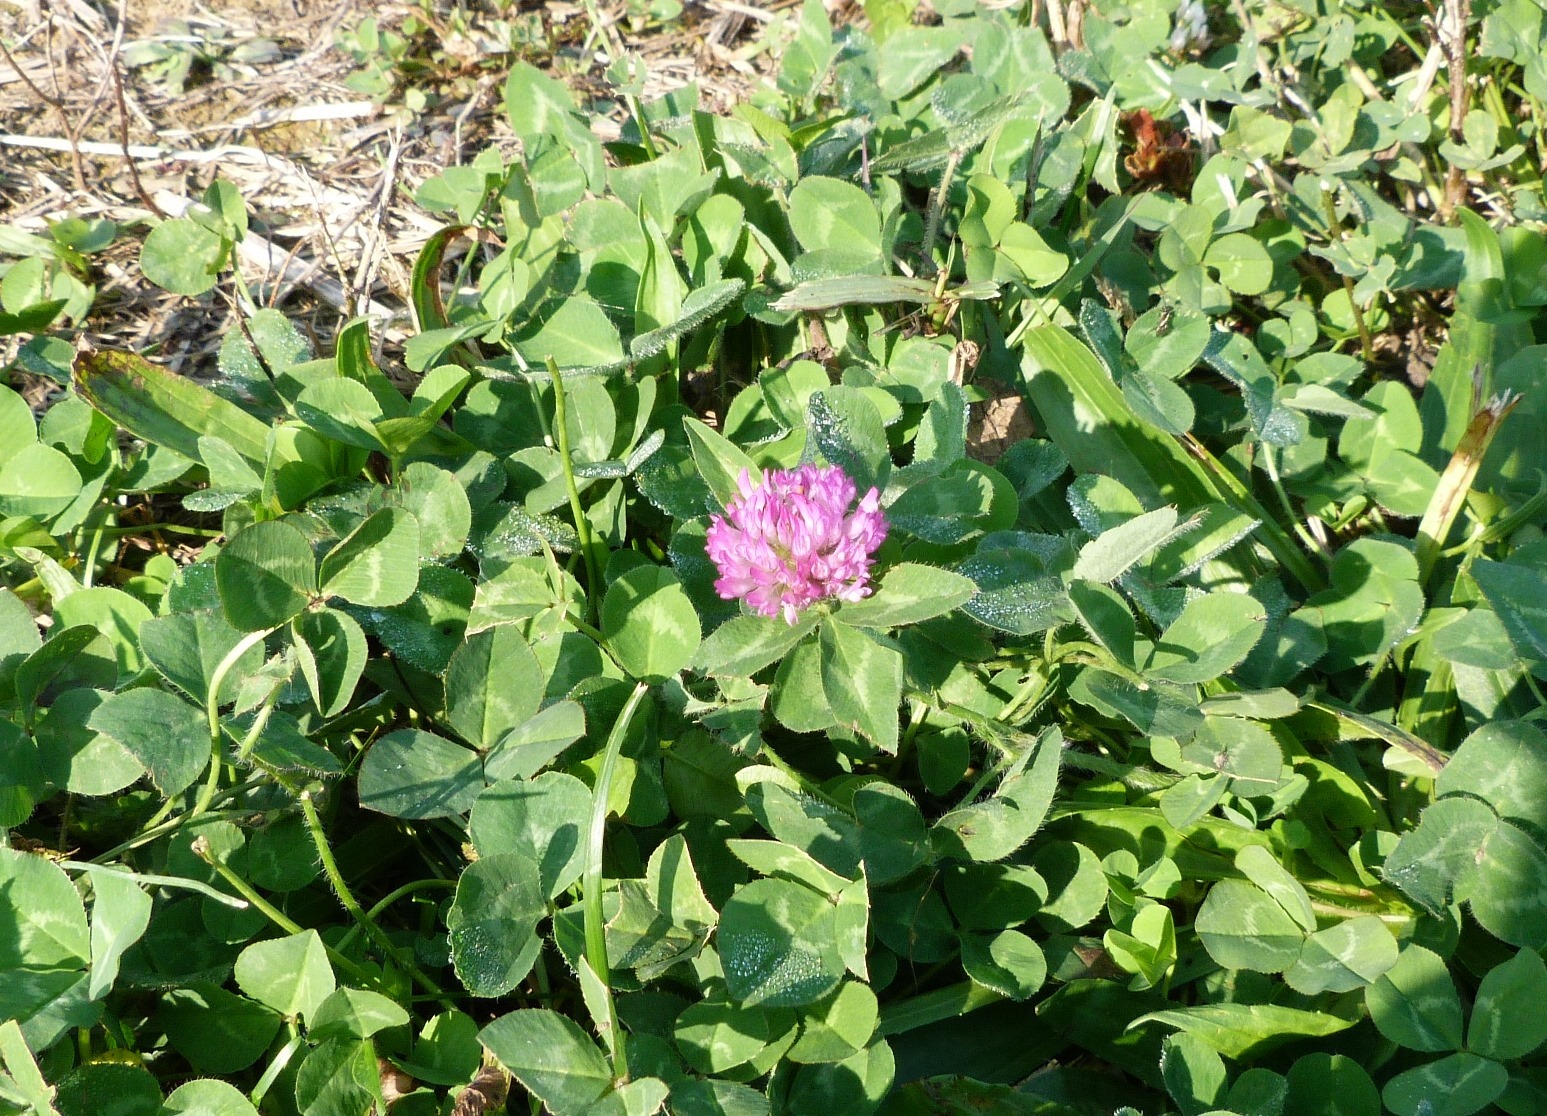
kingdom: Plantae
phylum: Tracheophyta
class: Magnoliopsida
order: Fabales
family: Fabaceae
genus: Trifolium
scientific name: Trifolium pratense
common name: Red clover
